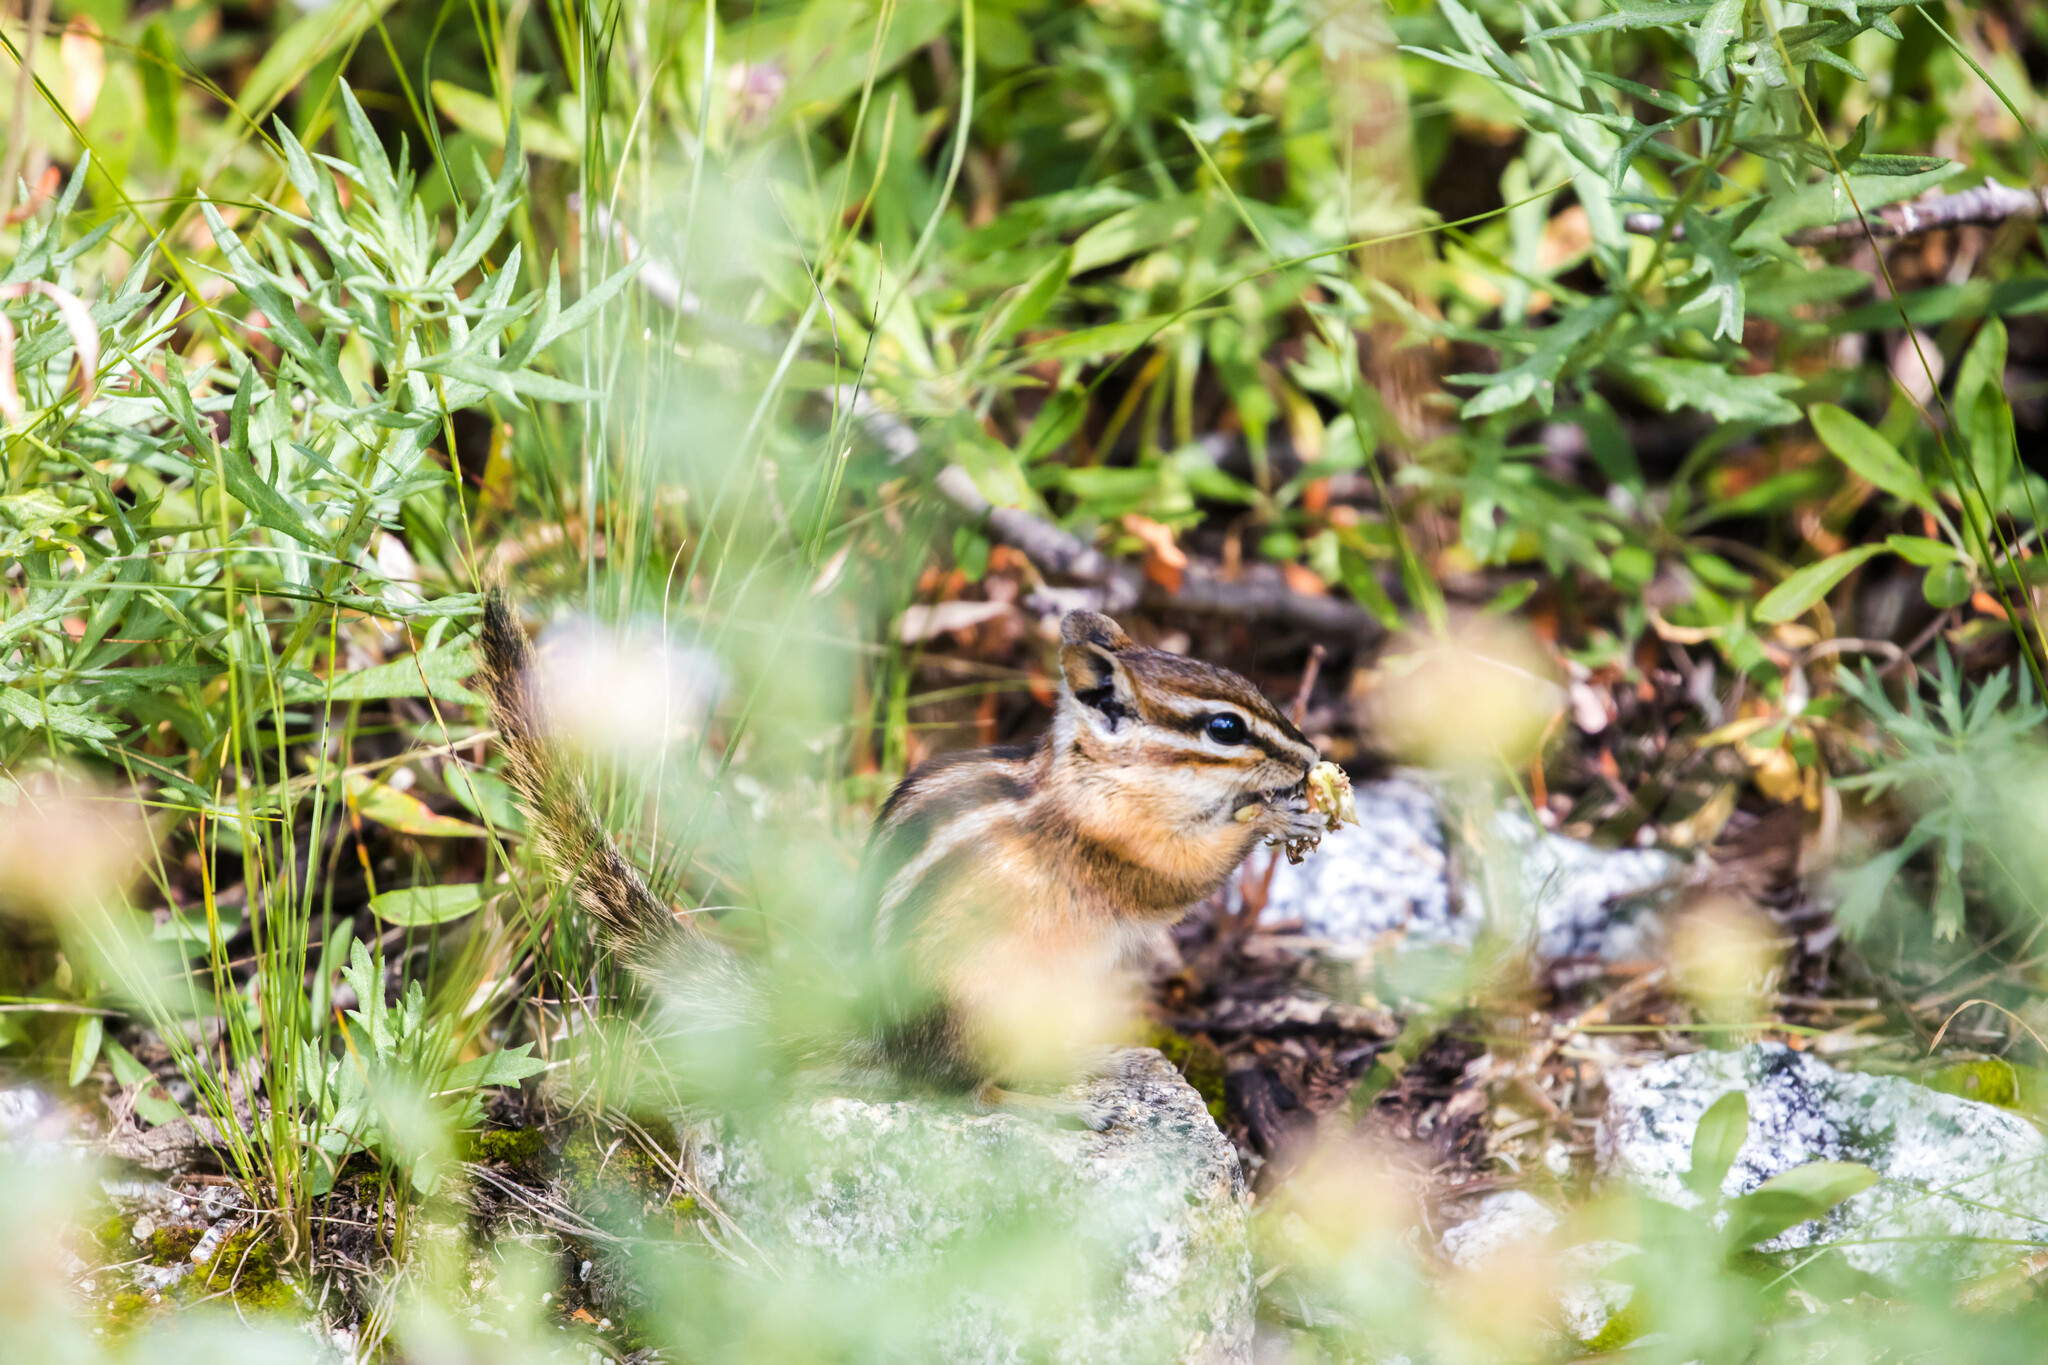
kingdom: Animalia
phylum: Chordata
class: Mammalia
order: Rodentia
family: Sciuridae
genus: Tamias
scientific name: Tamias minimus
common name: Least chipmunk
